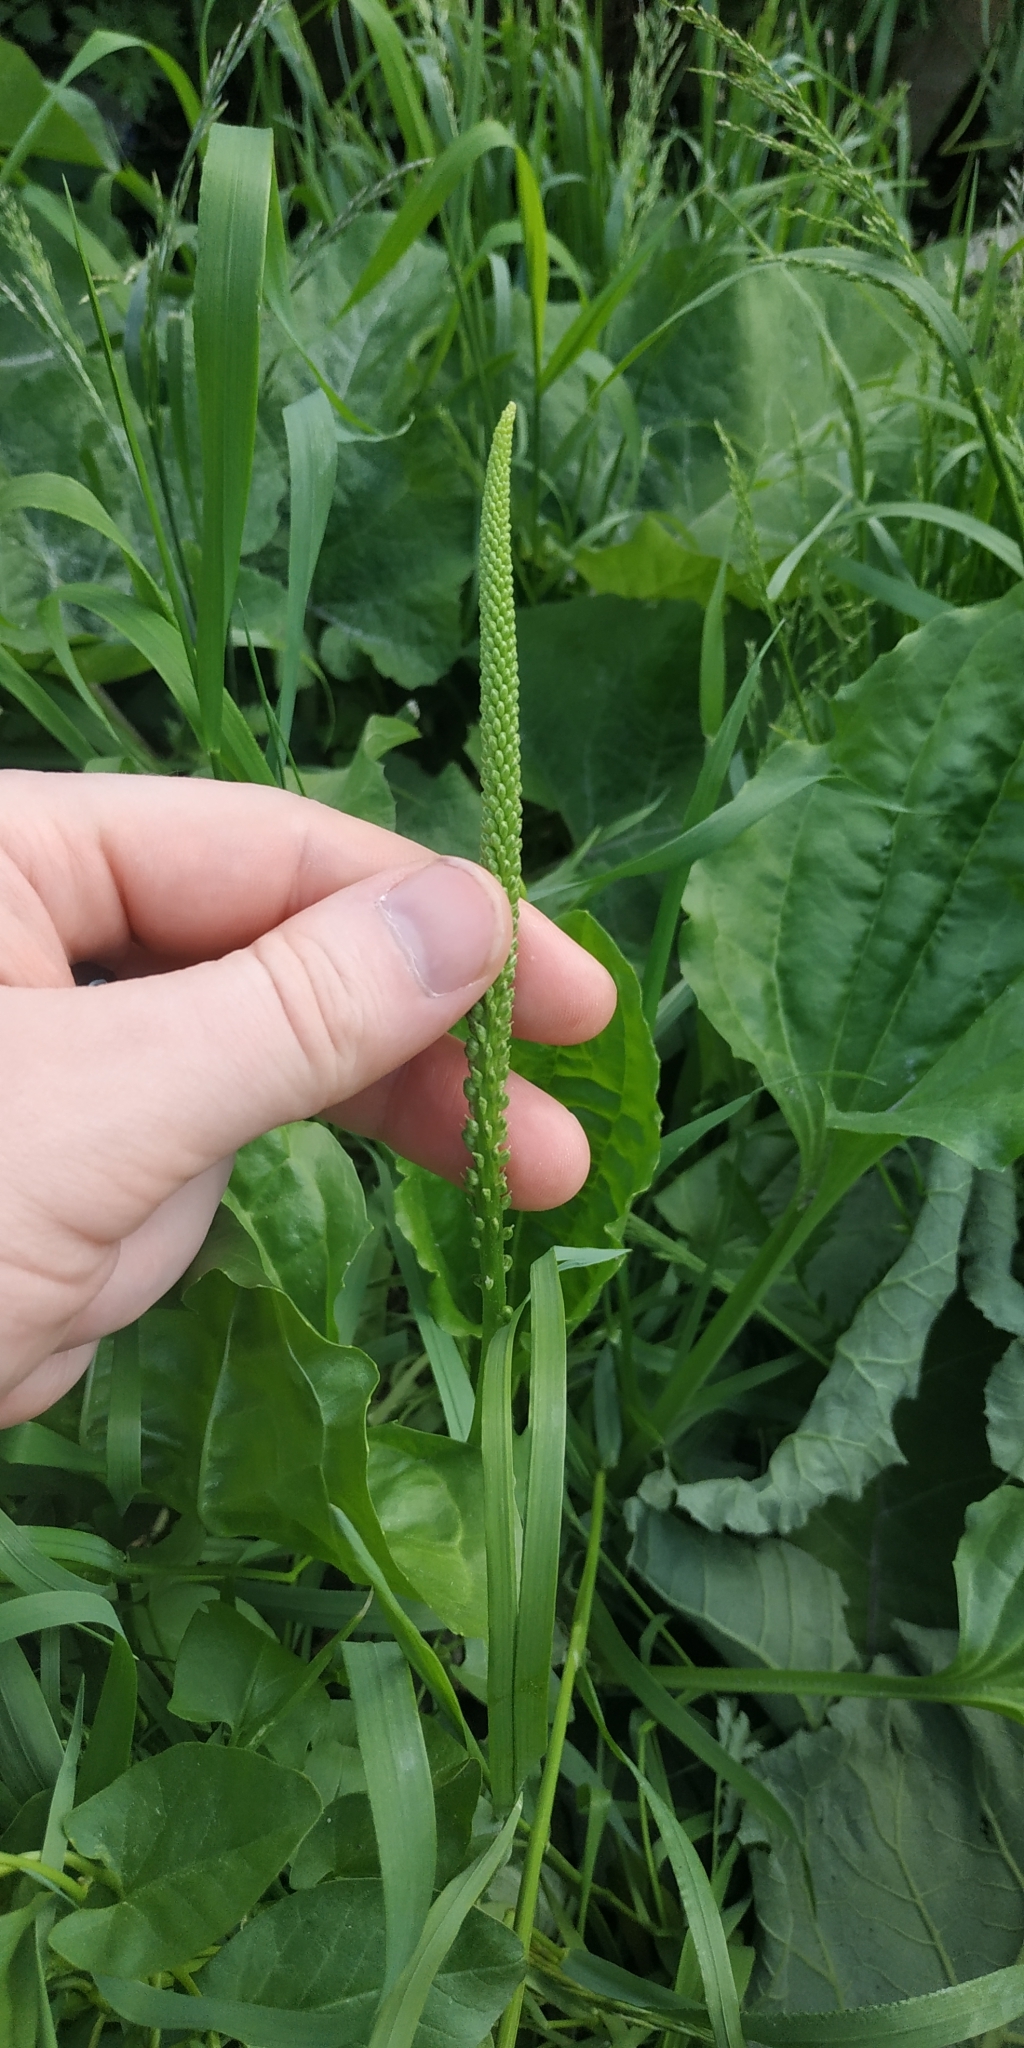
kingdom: Plantae
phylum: Tracheophyta
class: Magnoliopsida
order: Lamiales
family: Plantaginaceae
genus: Plantago
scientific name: Plantago major
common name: Common plantain
